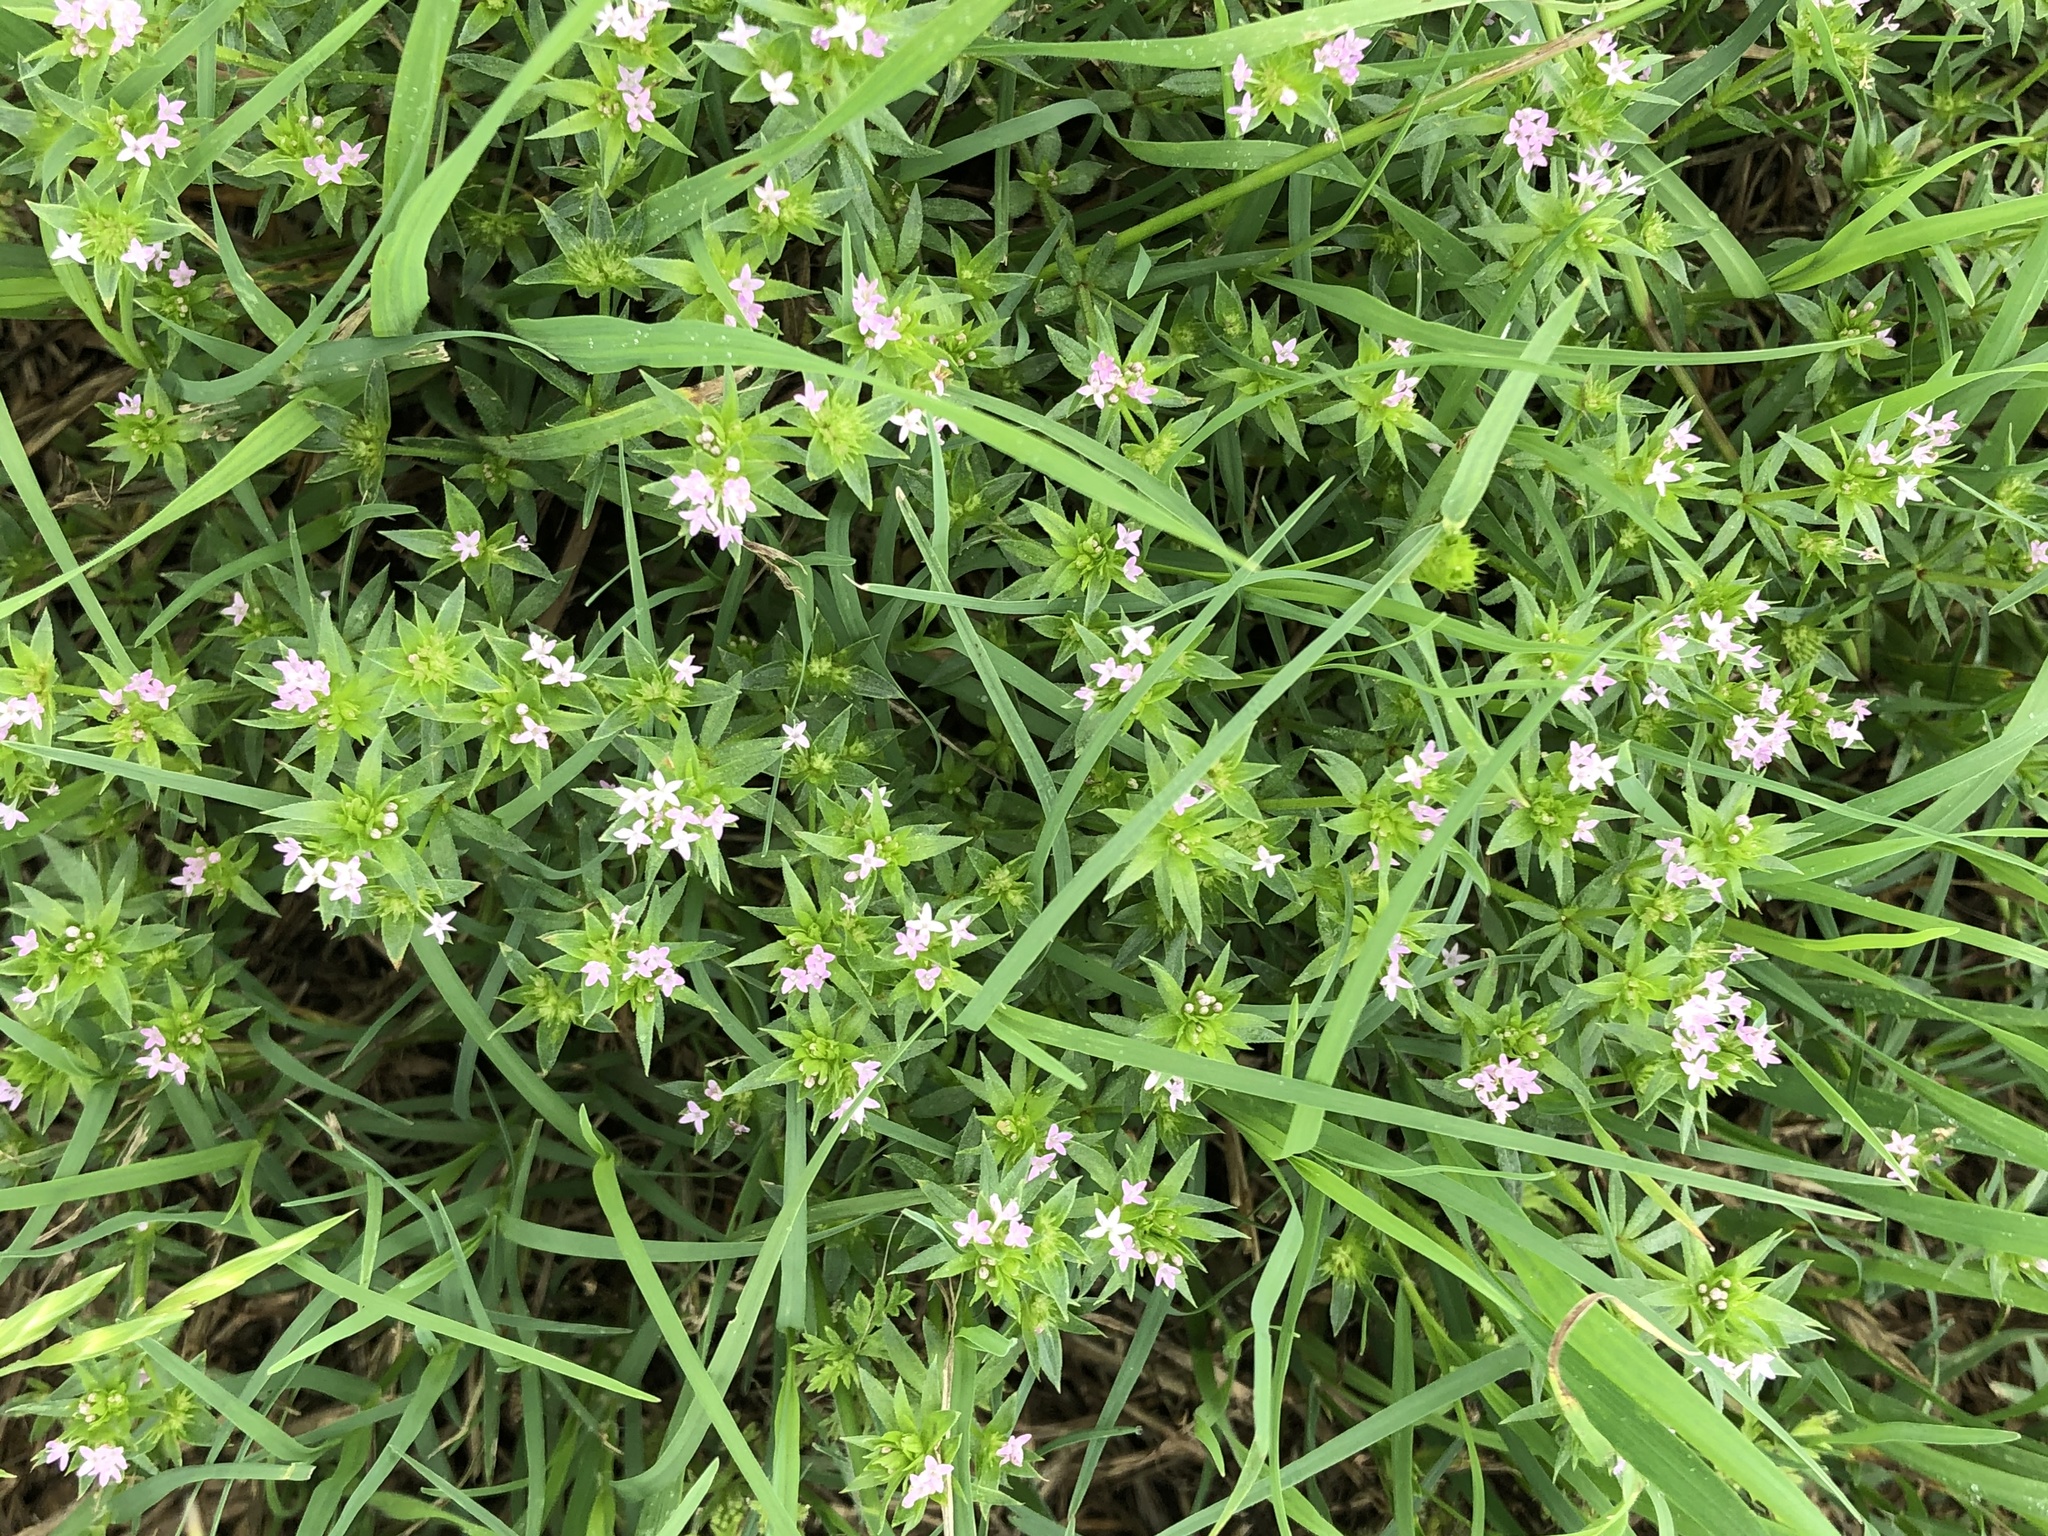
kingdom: Plantae
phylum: Tracheophyta
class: Magnoliopsida
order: Gentianales
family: Rubiaceae
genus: Sherardia
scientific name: Sherardia arvensis
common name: Field madder
